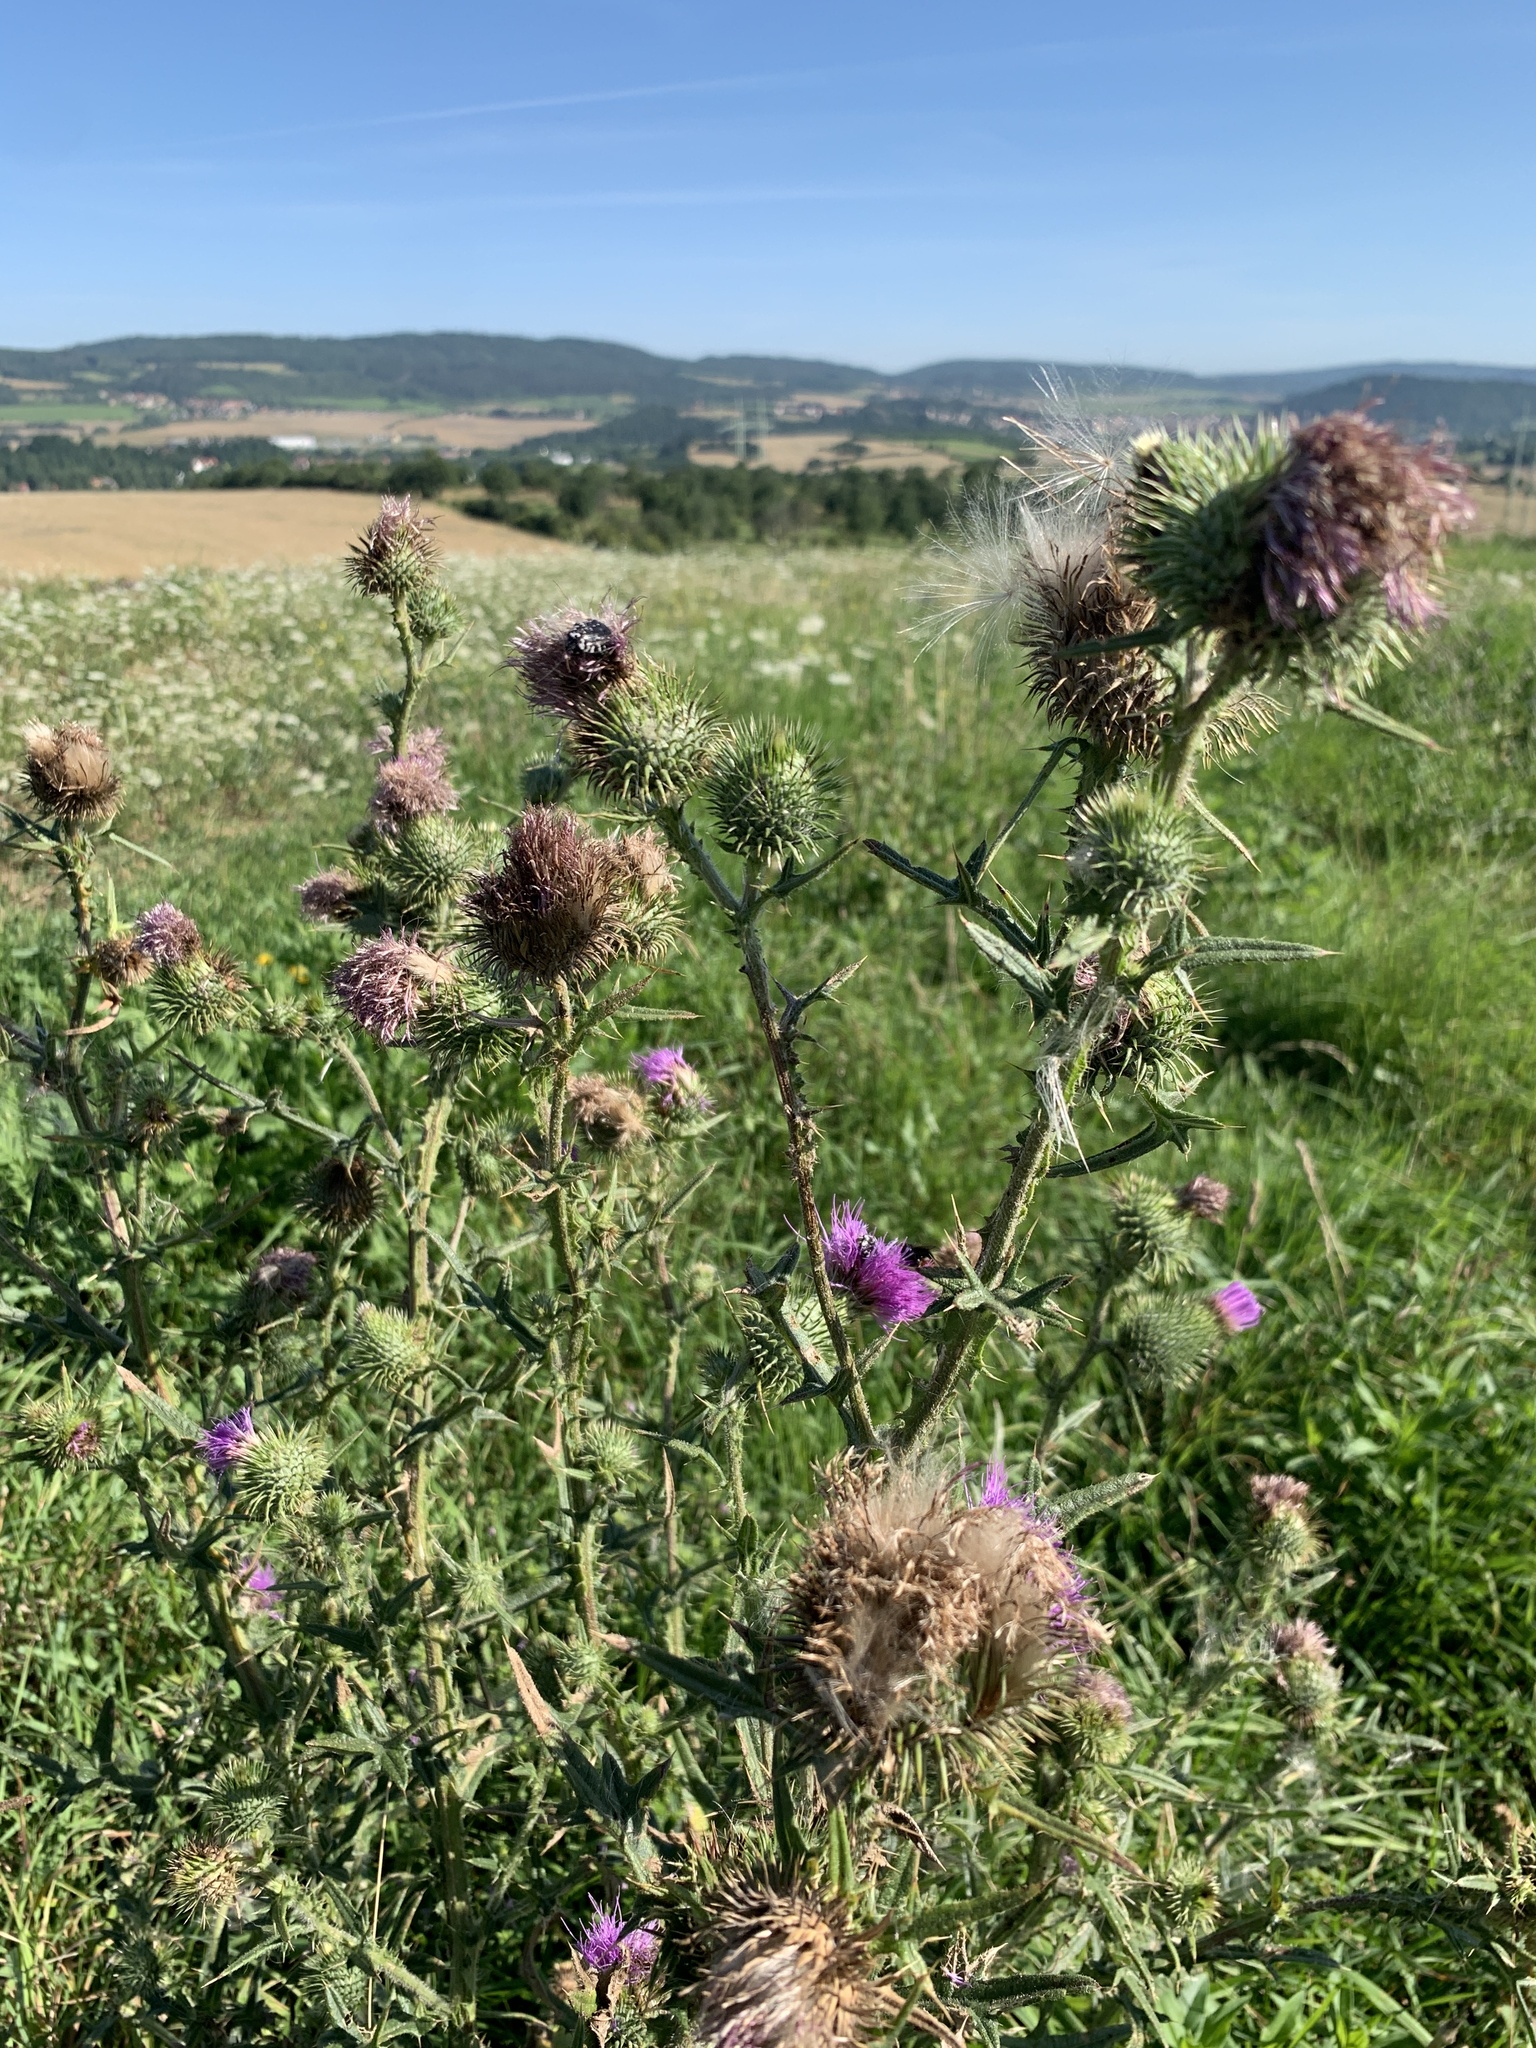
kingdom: Plantae
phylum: Tracheophyta
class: Magnoliopsida
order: Asterales
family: Asteraceae
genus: Cirsium
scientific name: Cirsium vulgare
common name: Bull thistle
